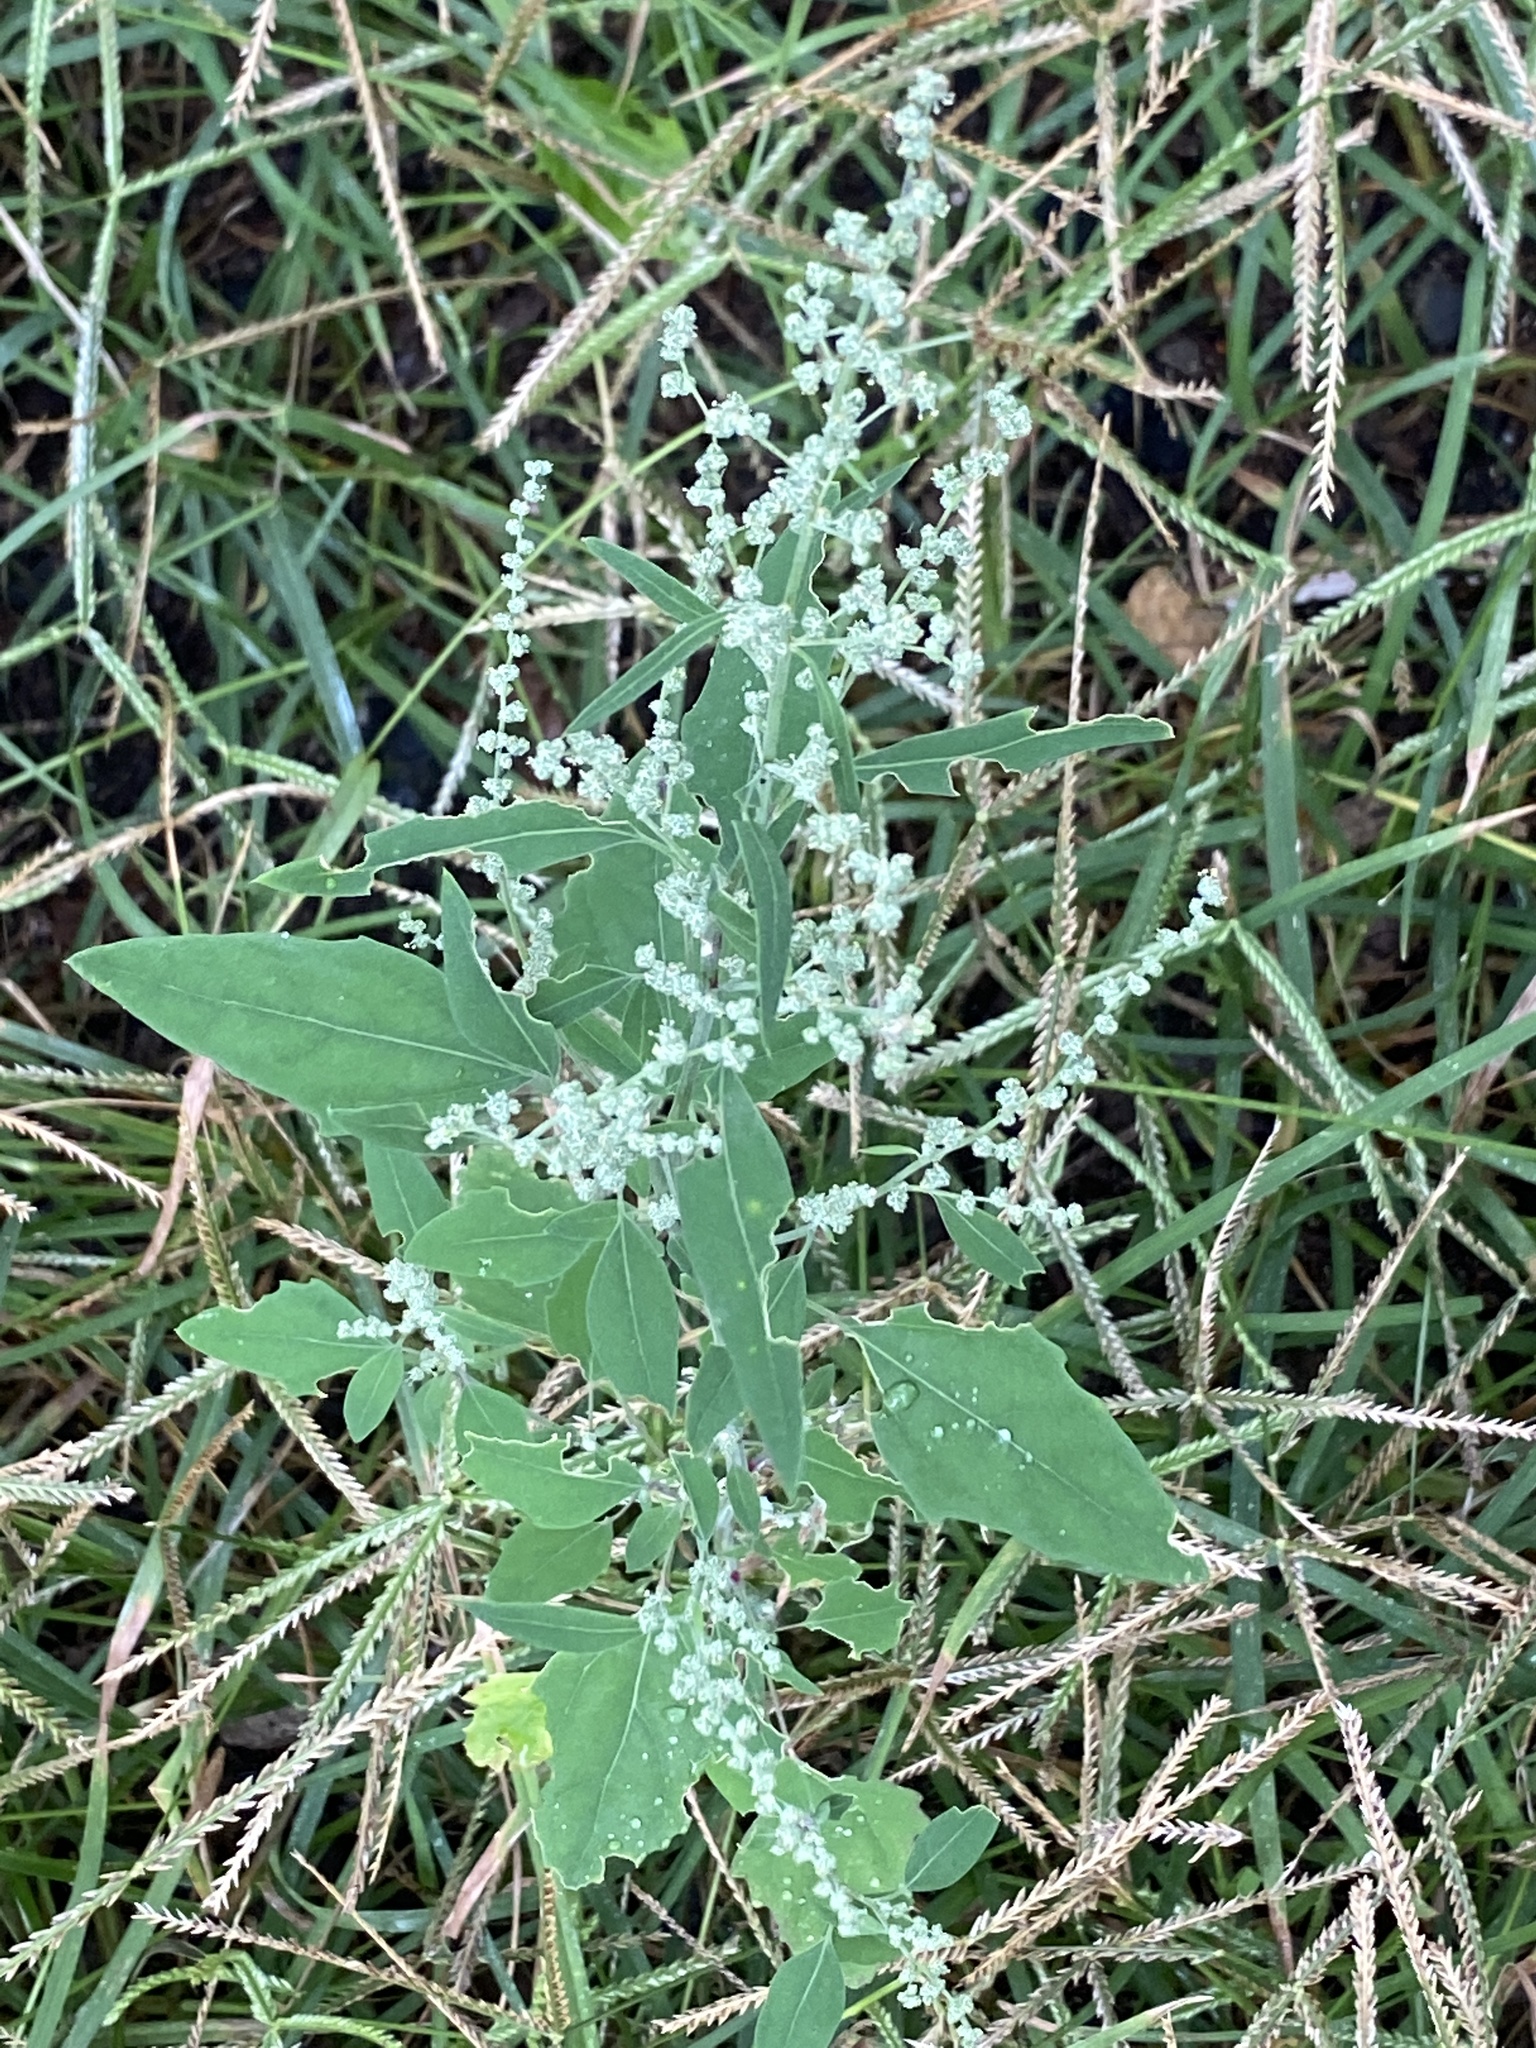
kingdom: Plantae
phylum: Tracheophyta
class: Magnoliopsida
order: Caryophyllales
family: Amaranthaceae
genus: Chenopodium
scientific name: Chenopodium album
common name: Fat-hen
